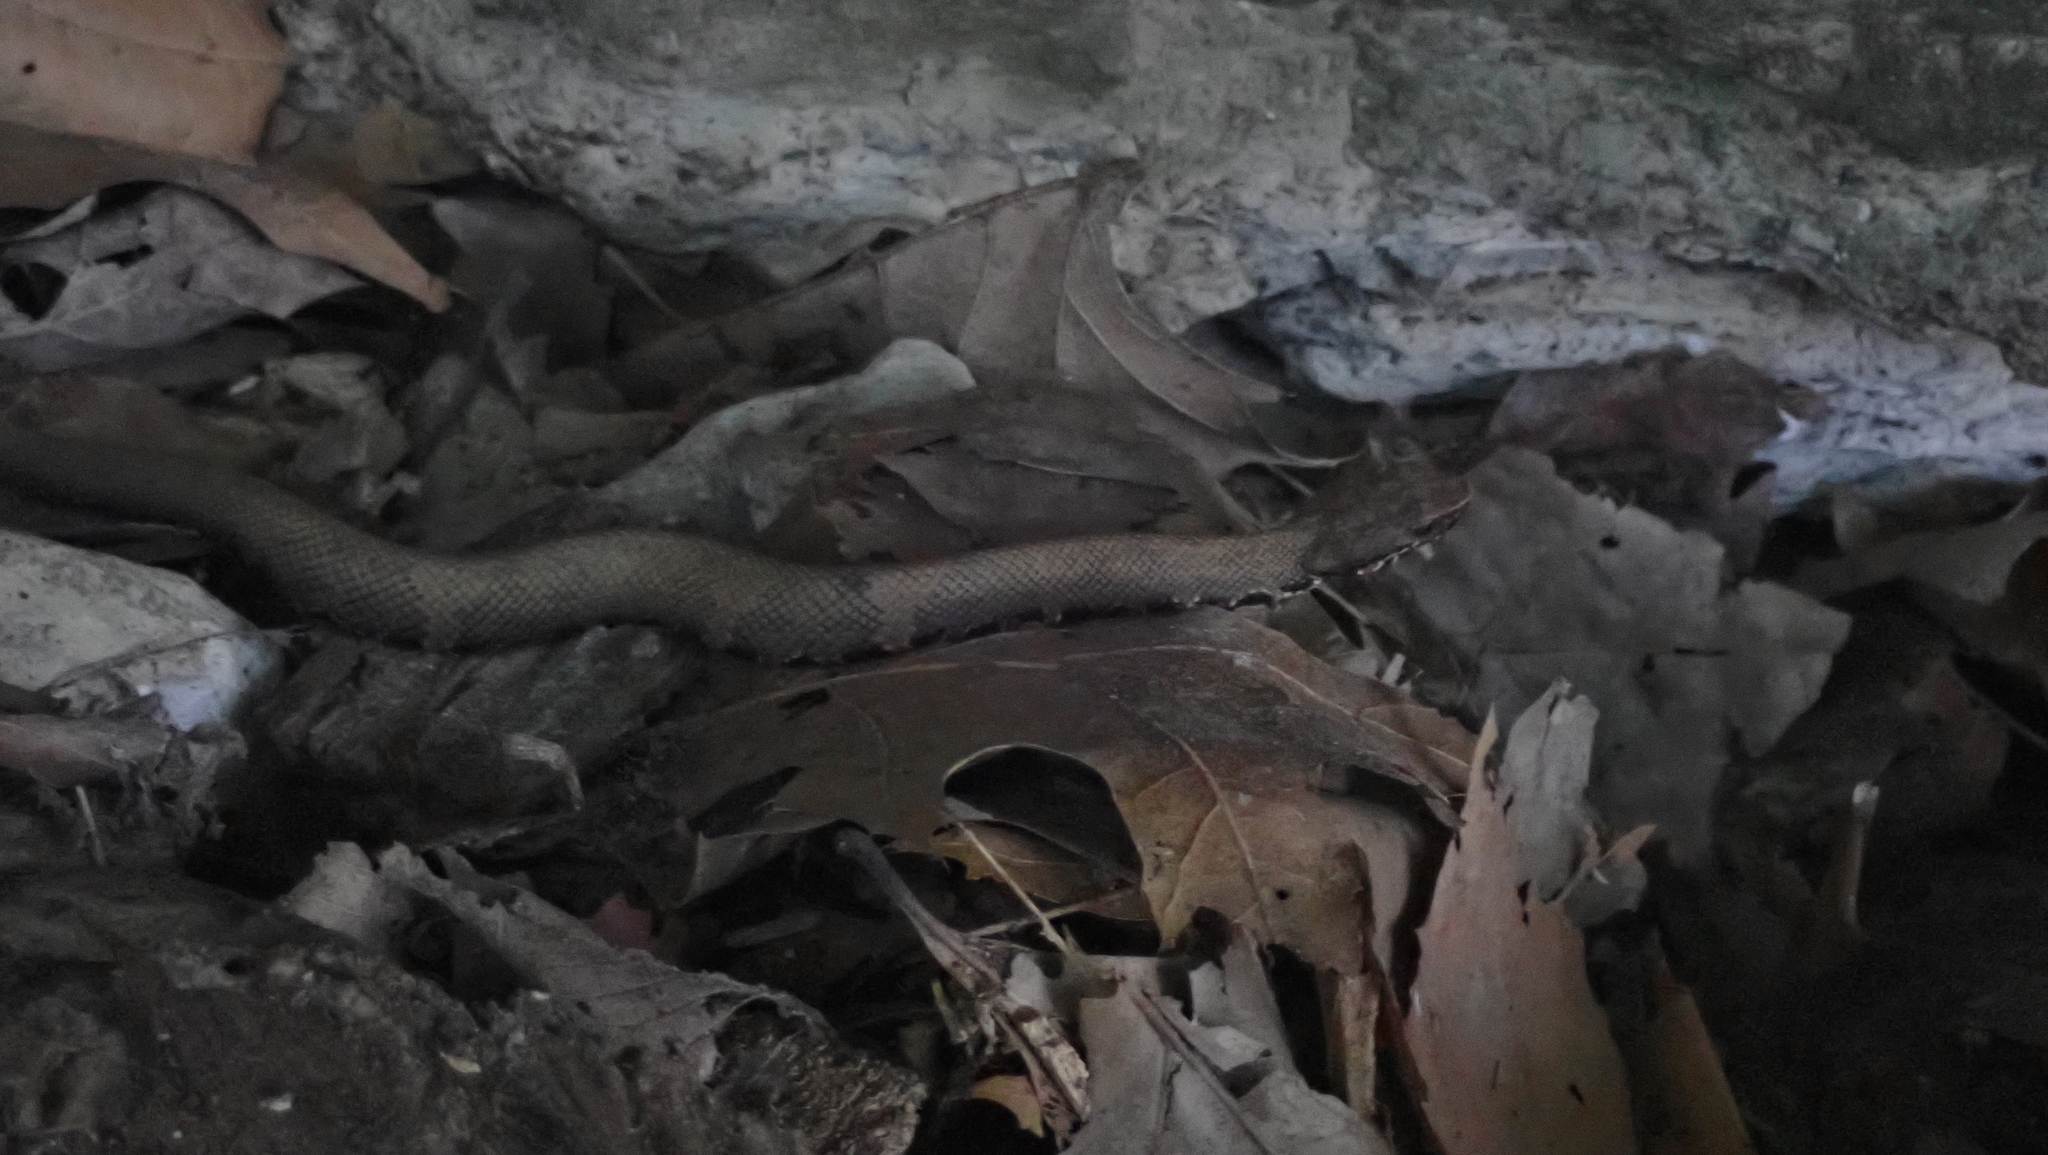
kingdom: Animalia
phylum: Chordata
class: Squamata
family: Viperidae
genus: Agkistrodon
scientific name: Agkistrodon piscivorus
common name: Cottonmouth
